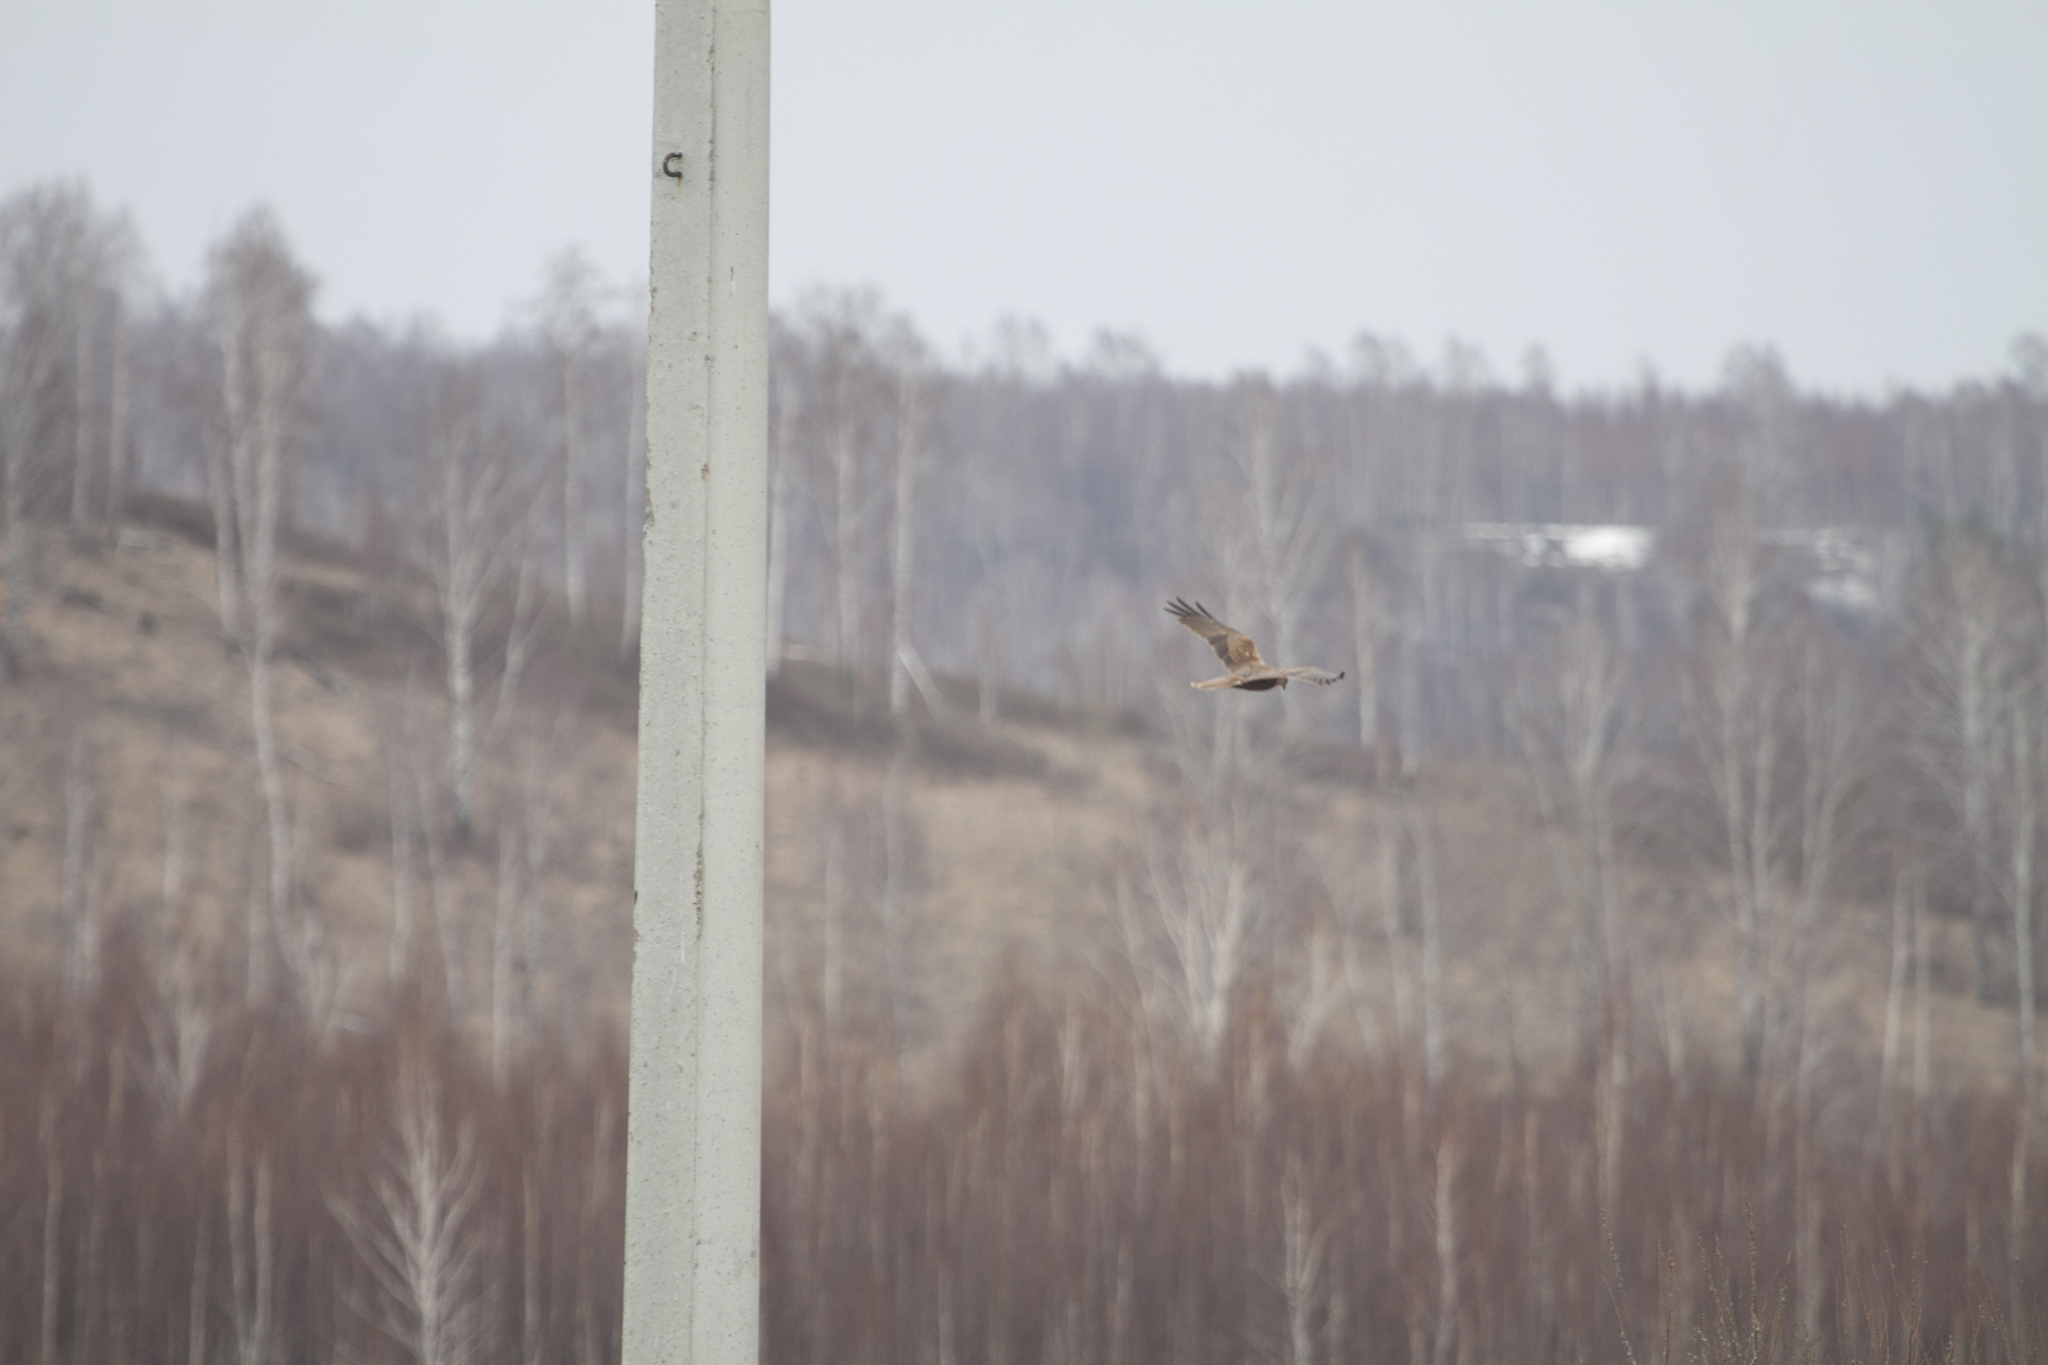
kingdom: Animalia
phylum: Chordata
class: Aves
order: Accipitriformes
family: Accipitridae
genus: Circus
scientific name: Circus aeruginosus
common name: Western marsh harrier
